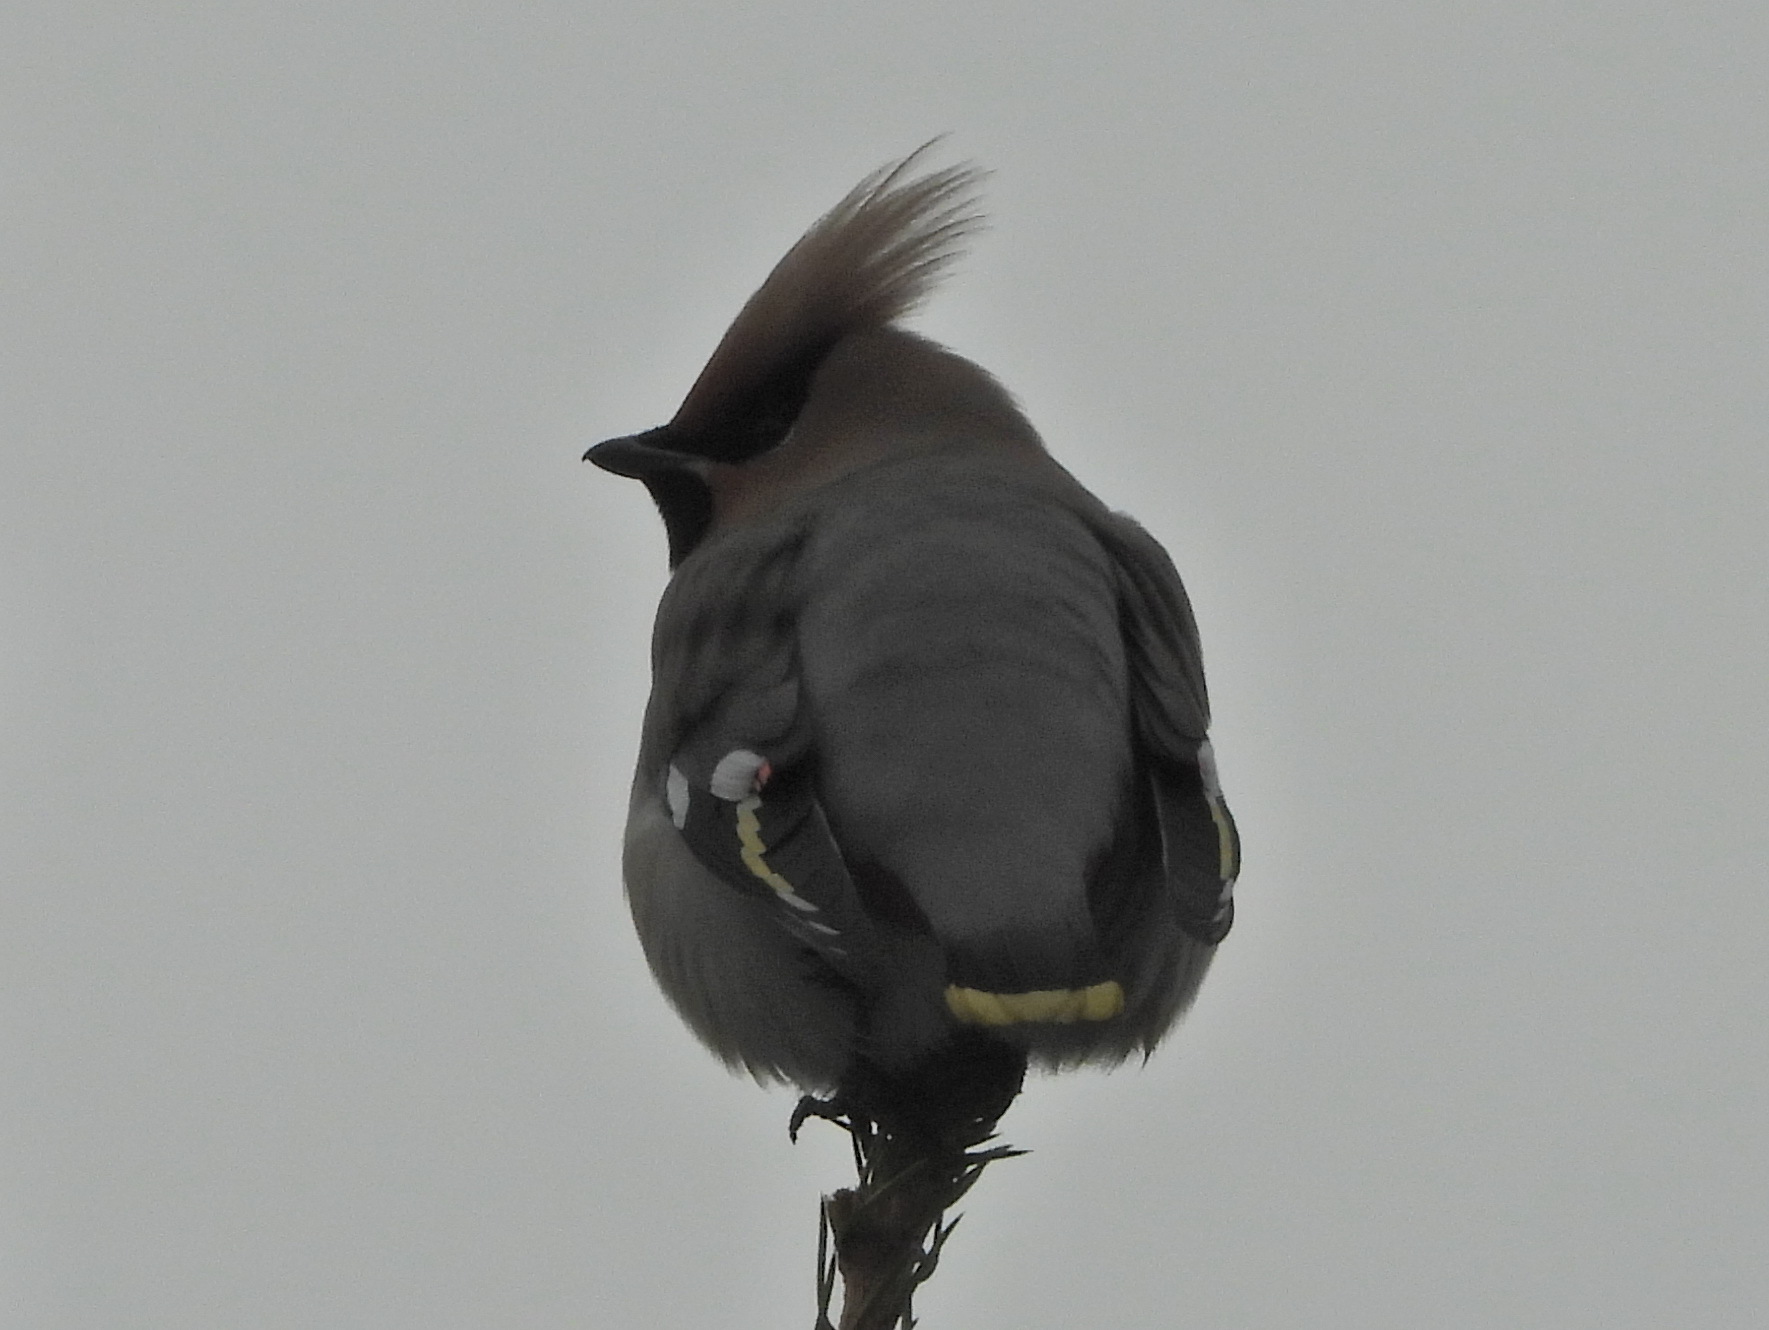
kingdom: Animalia
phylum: Chordata
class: Aves
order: Passeriformes
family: Bombycillidae
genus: Bombycilla
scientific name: Bombycilla garrulus
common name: Bohemian waxwing
